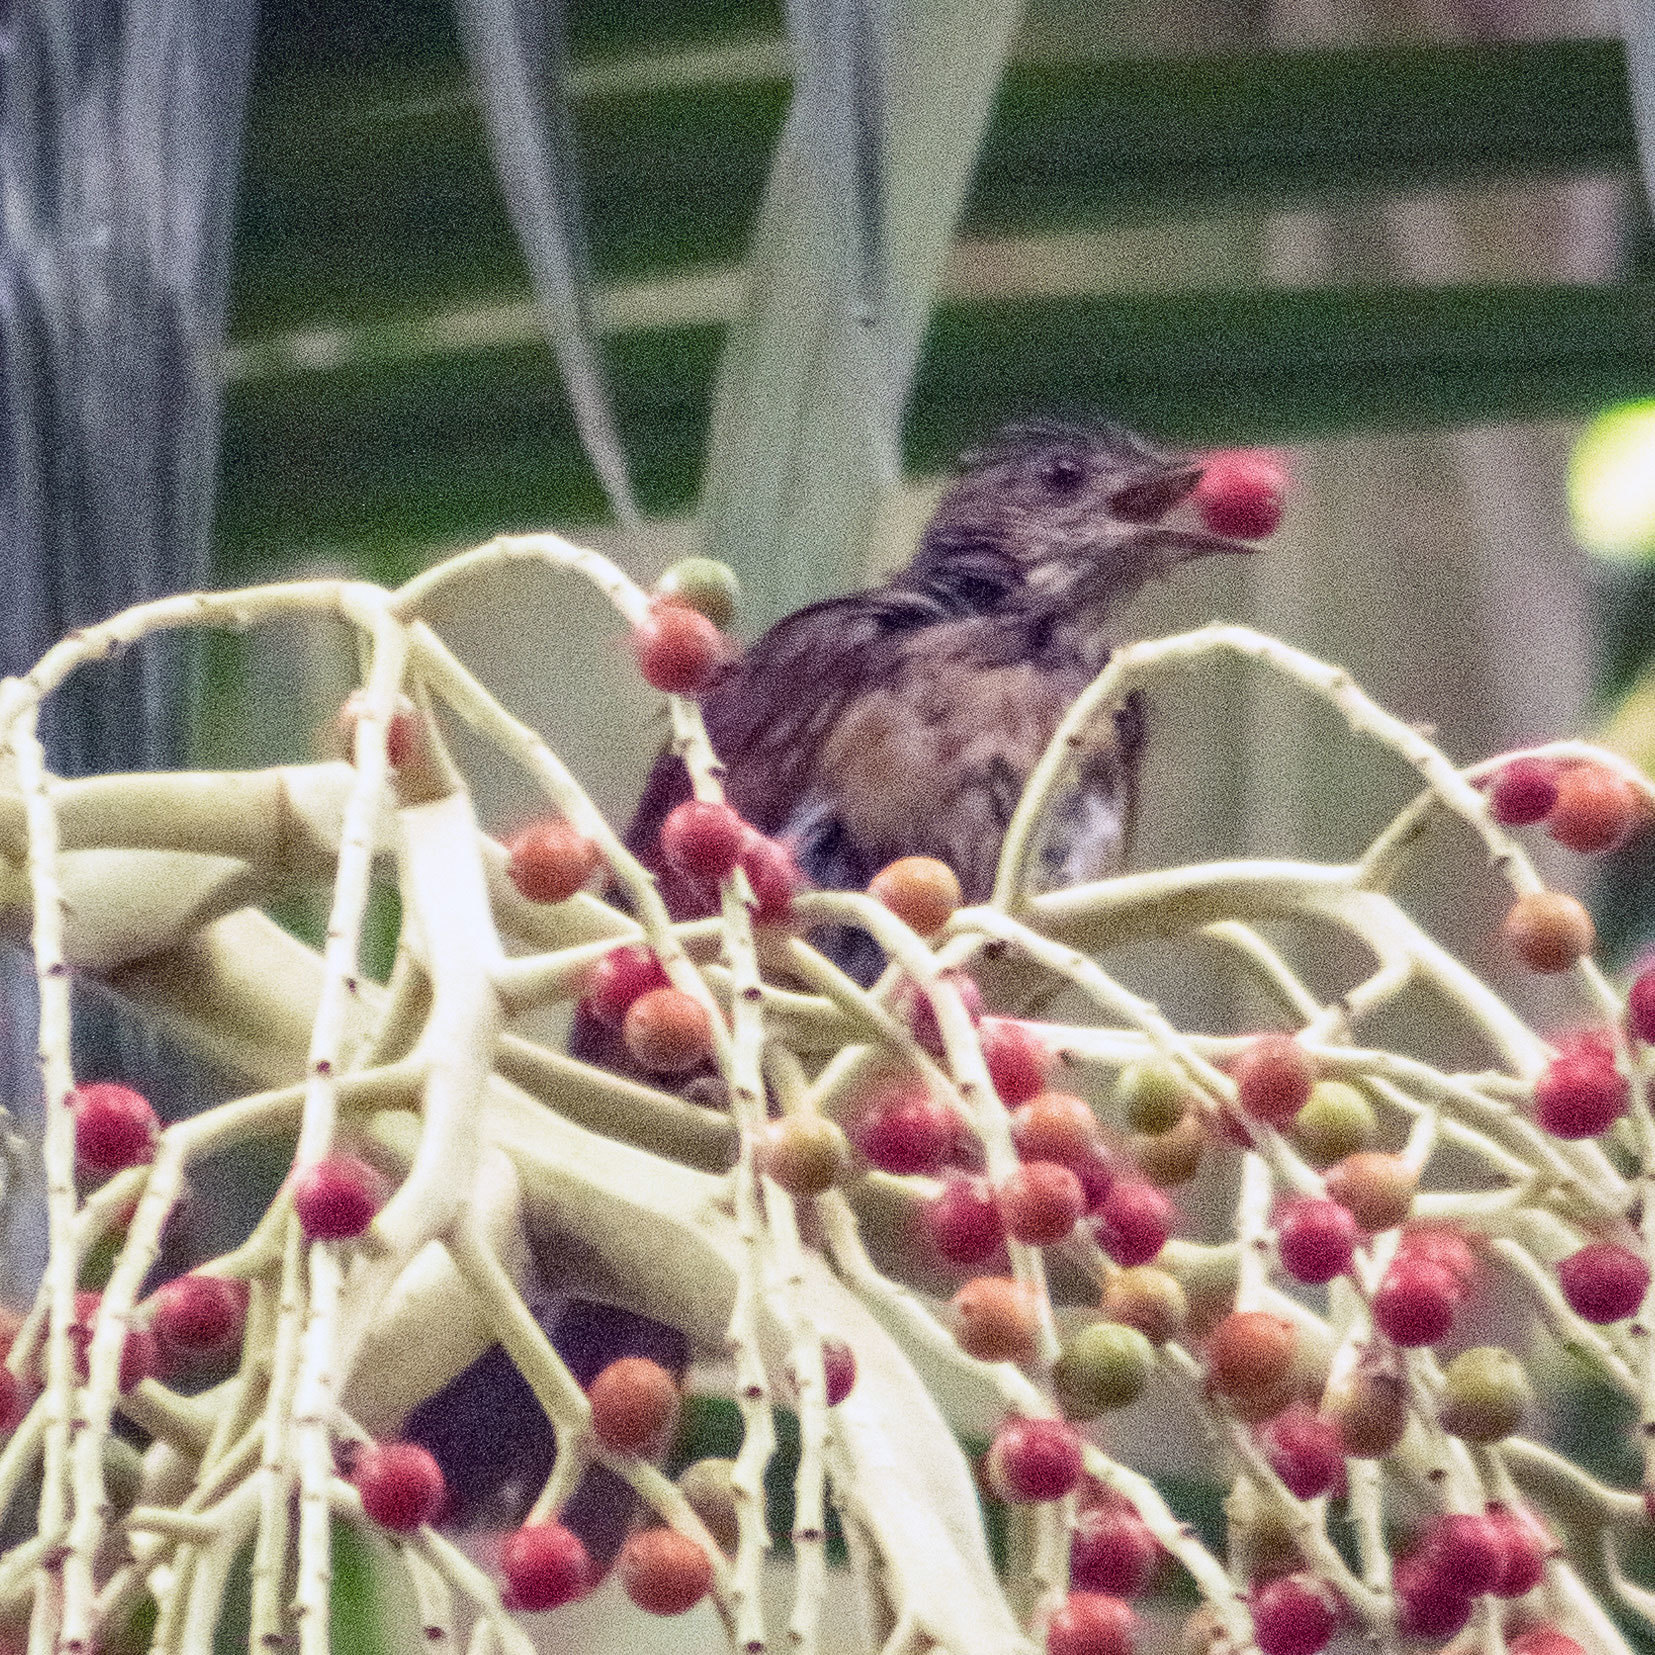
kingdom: Animalia
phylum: Chordata
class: Aves
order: Passeriformes
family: Turdidae
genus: Turdus
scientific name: Turdus leucomelas
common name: Pale-breasted thrush
